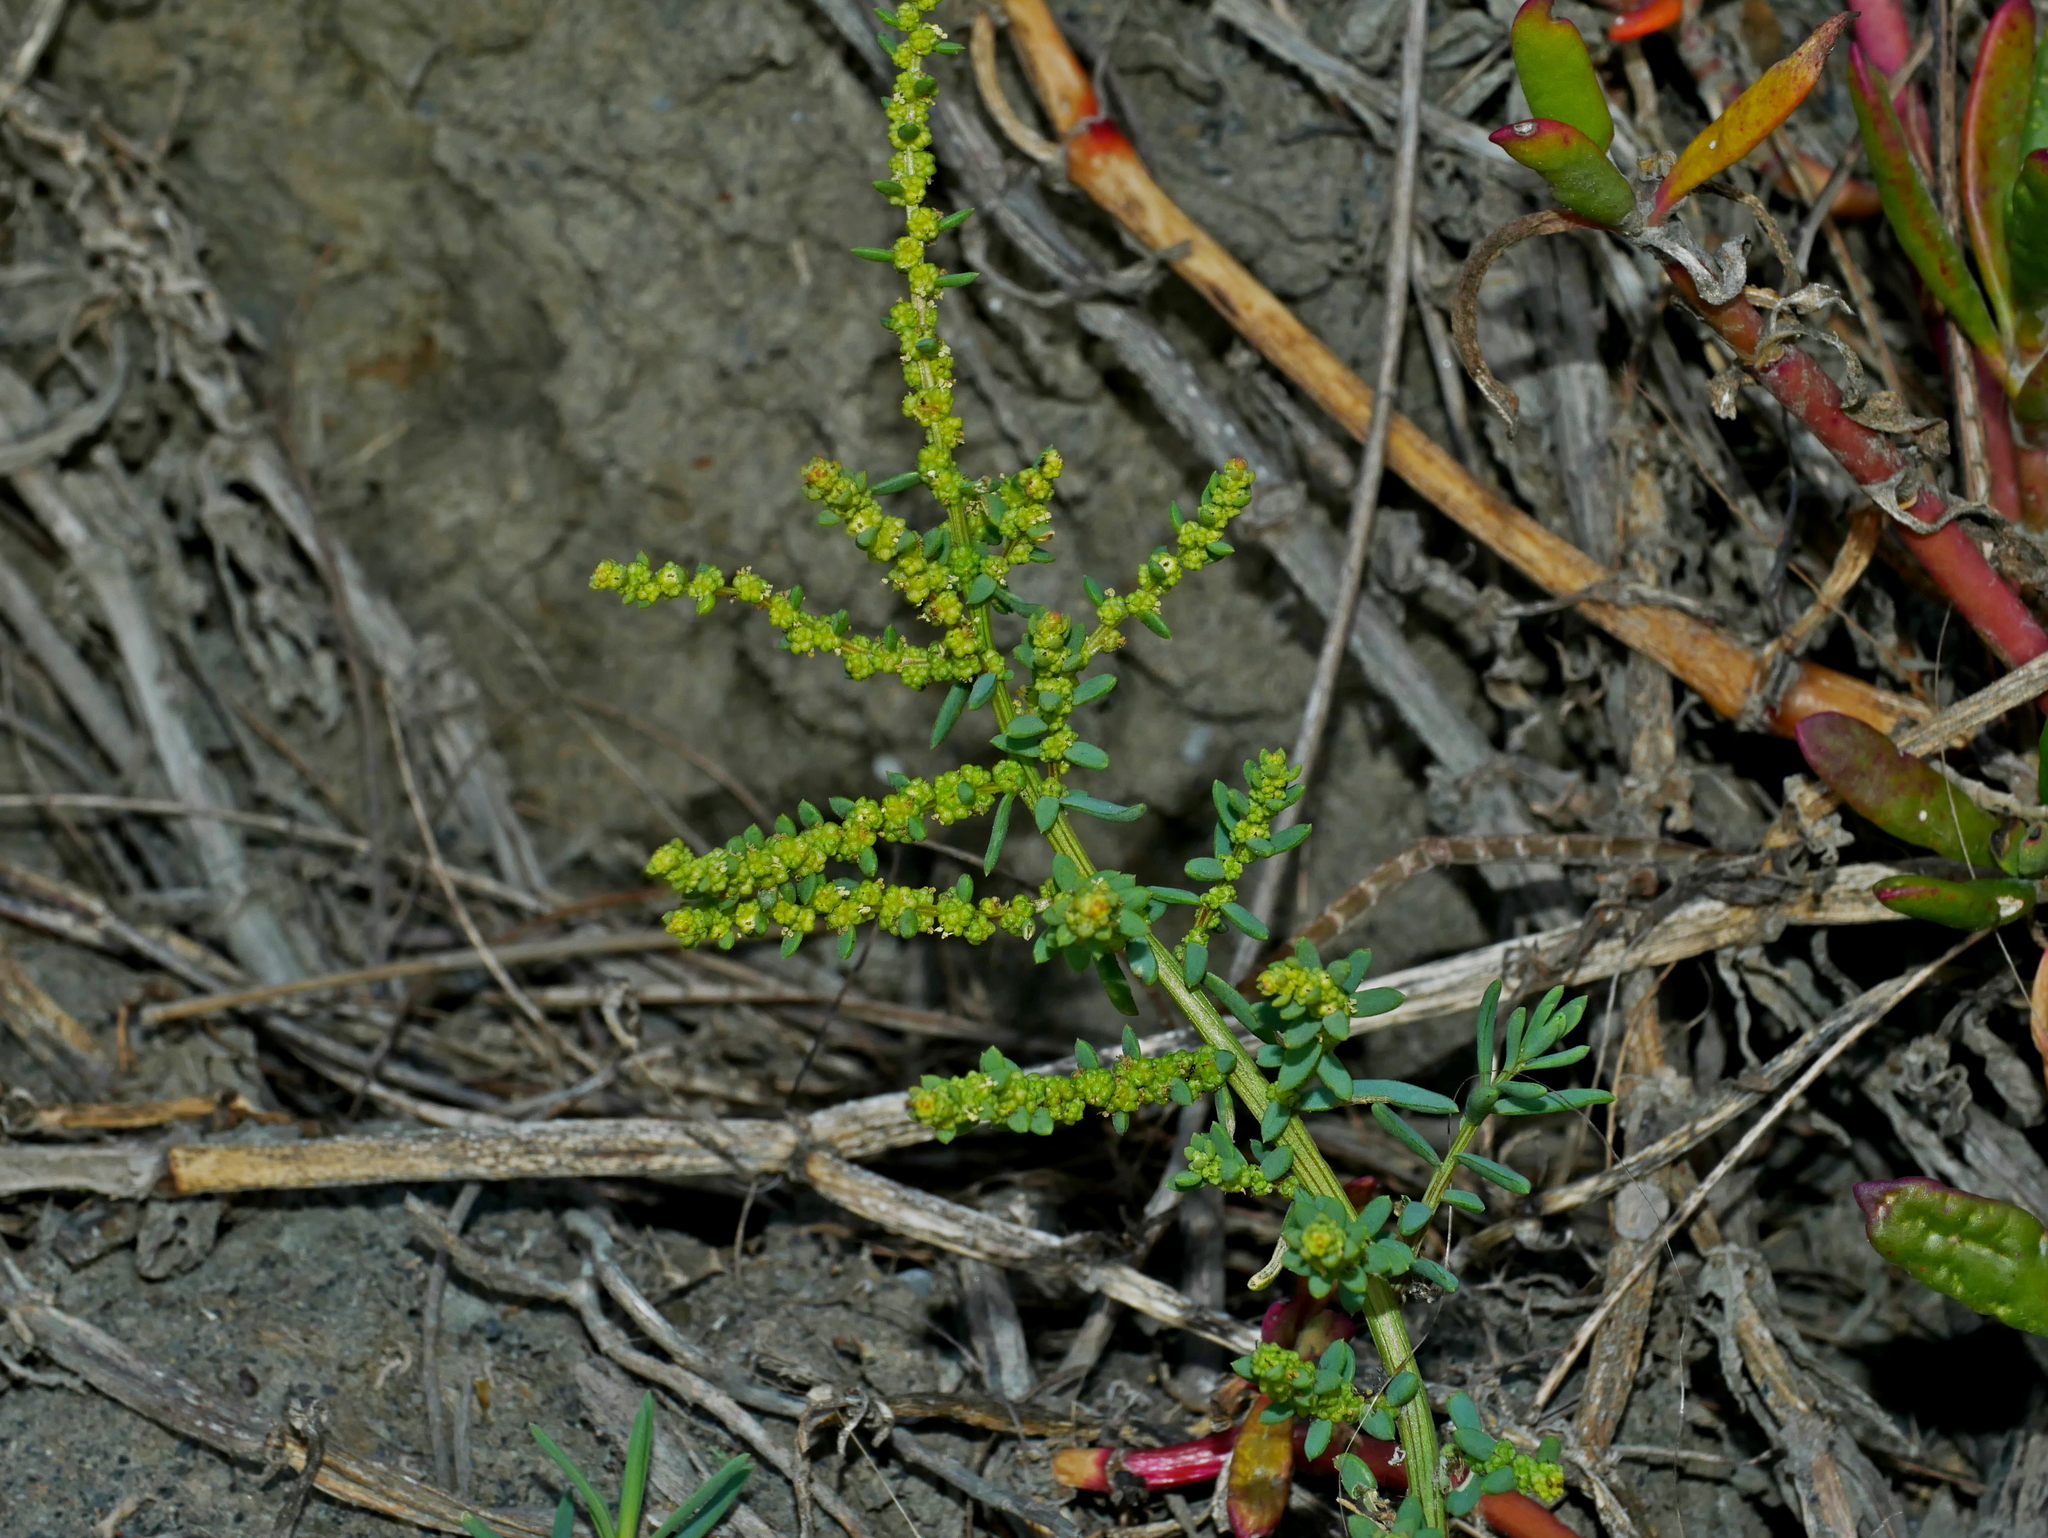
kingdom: Plantae
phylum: Tracheophyta
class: Magnoliopsida
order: Caryophyllales
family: Amaranthaceae
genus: Suaeda
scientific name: Suaeda maritima
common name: Annual sea-blite
